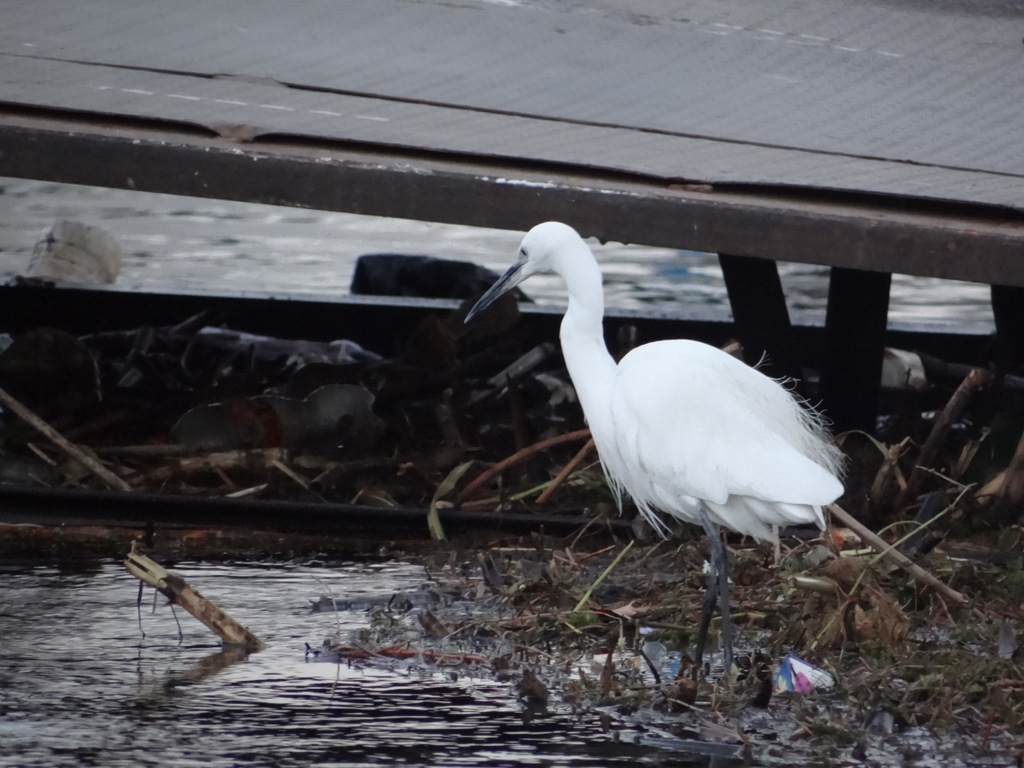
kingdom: Animalia
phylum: Chordata
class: Aves
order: Pelecaniformes
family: Ardeidae
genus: Egretta
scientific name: Egretta garzetta
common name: Little egret
